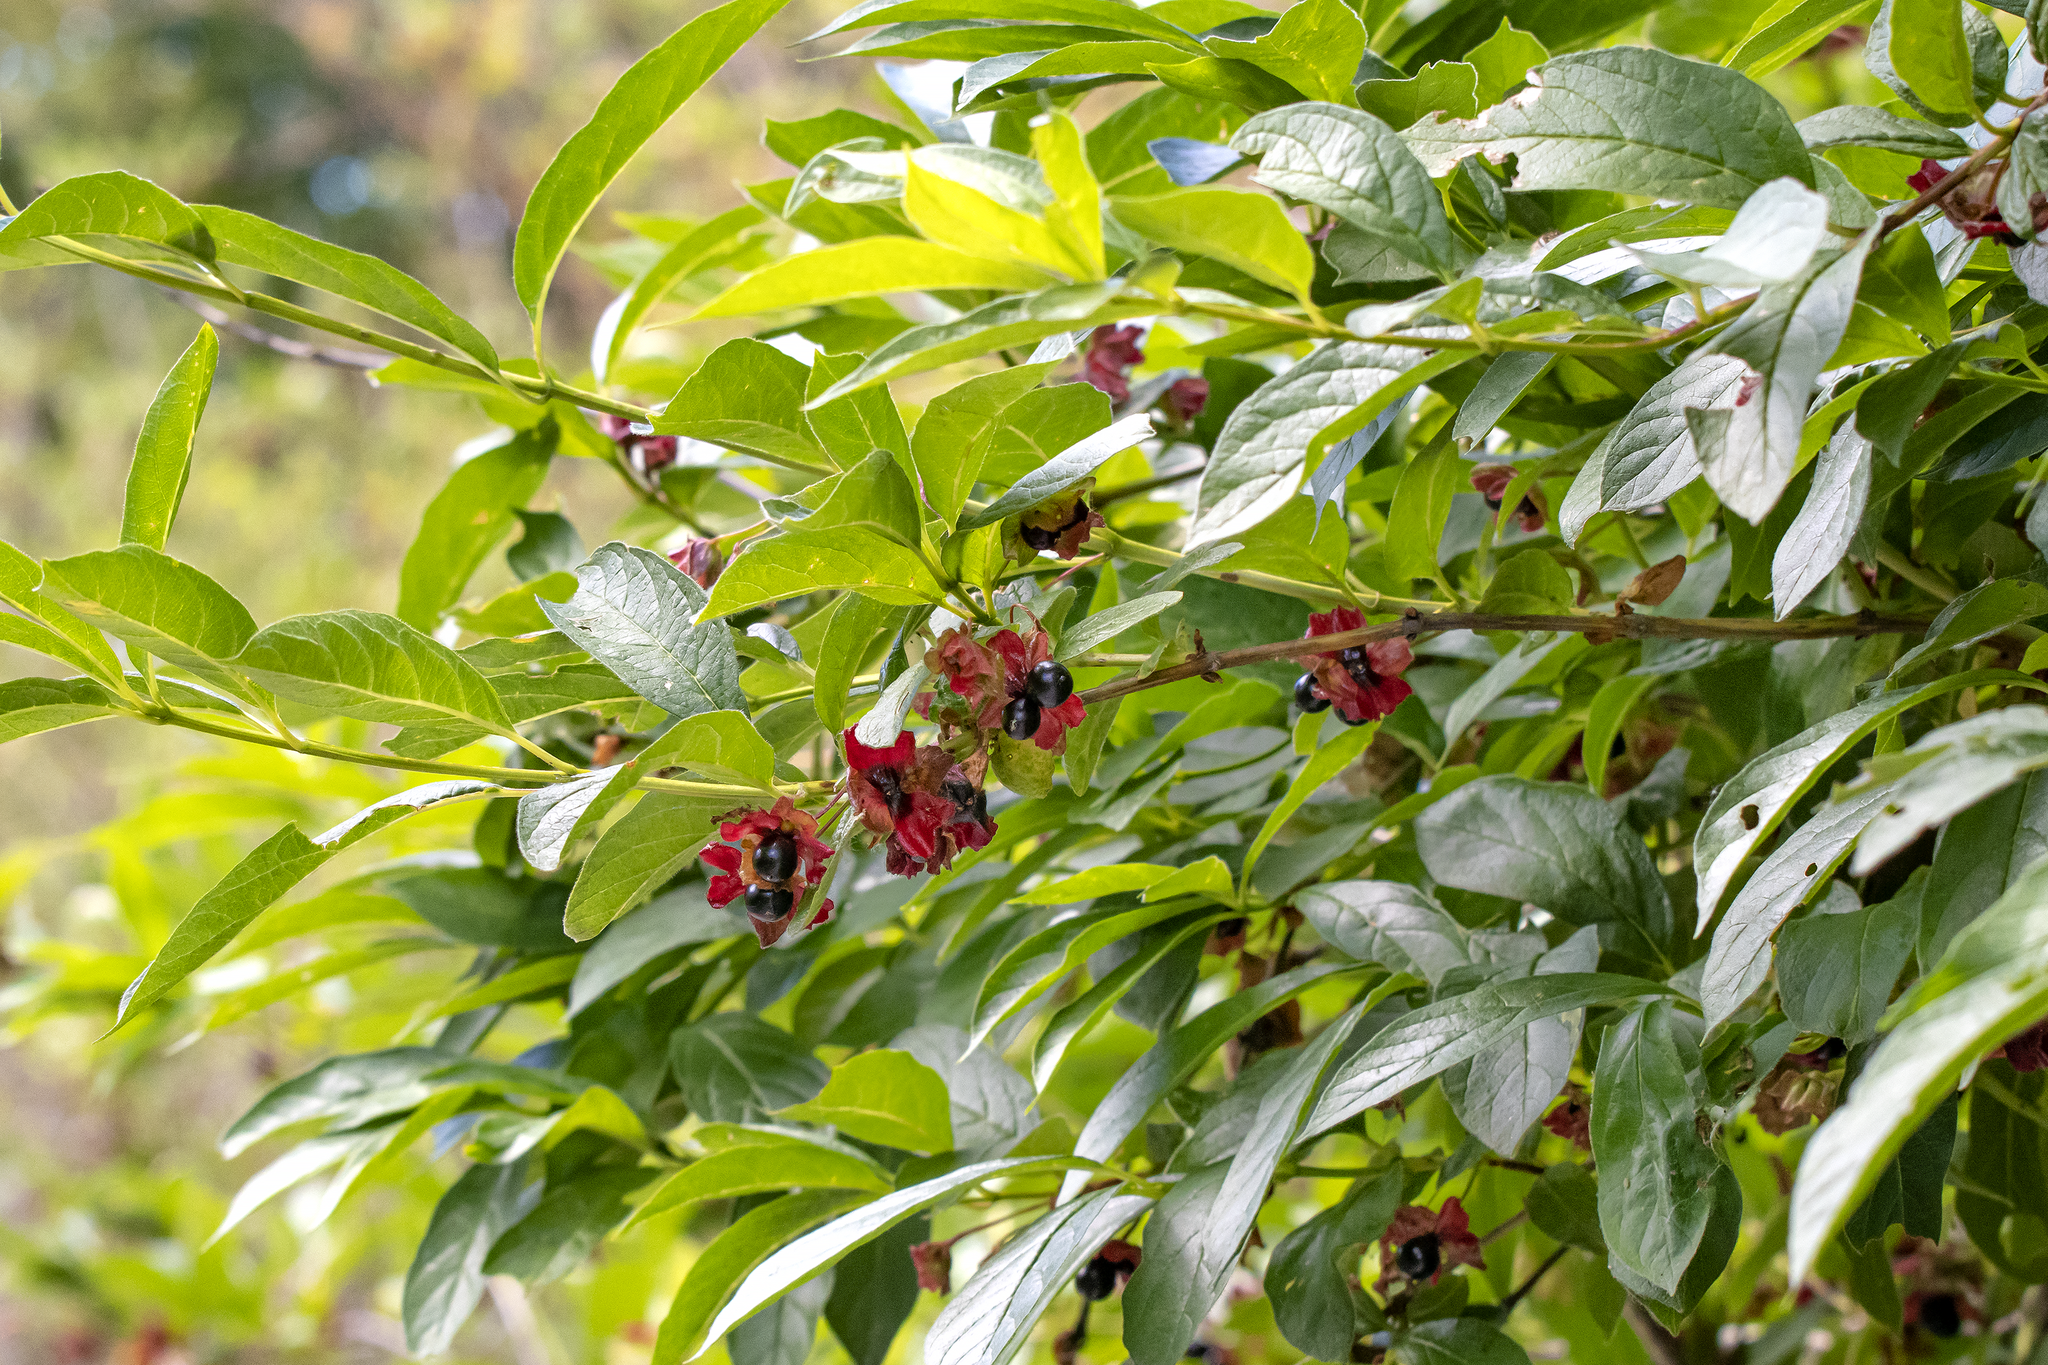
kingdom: Plantae
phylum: Tracheophyta
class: Magnoliopsida
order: Dipsacales
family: Caprifoliaceae
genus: Lonicera
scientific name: Lonicera involucrata
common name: Californian honeysuckle
